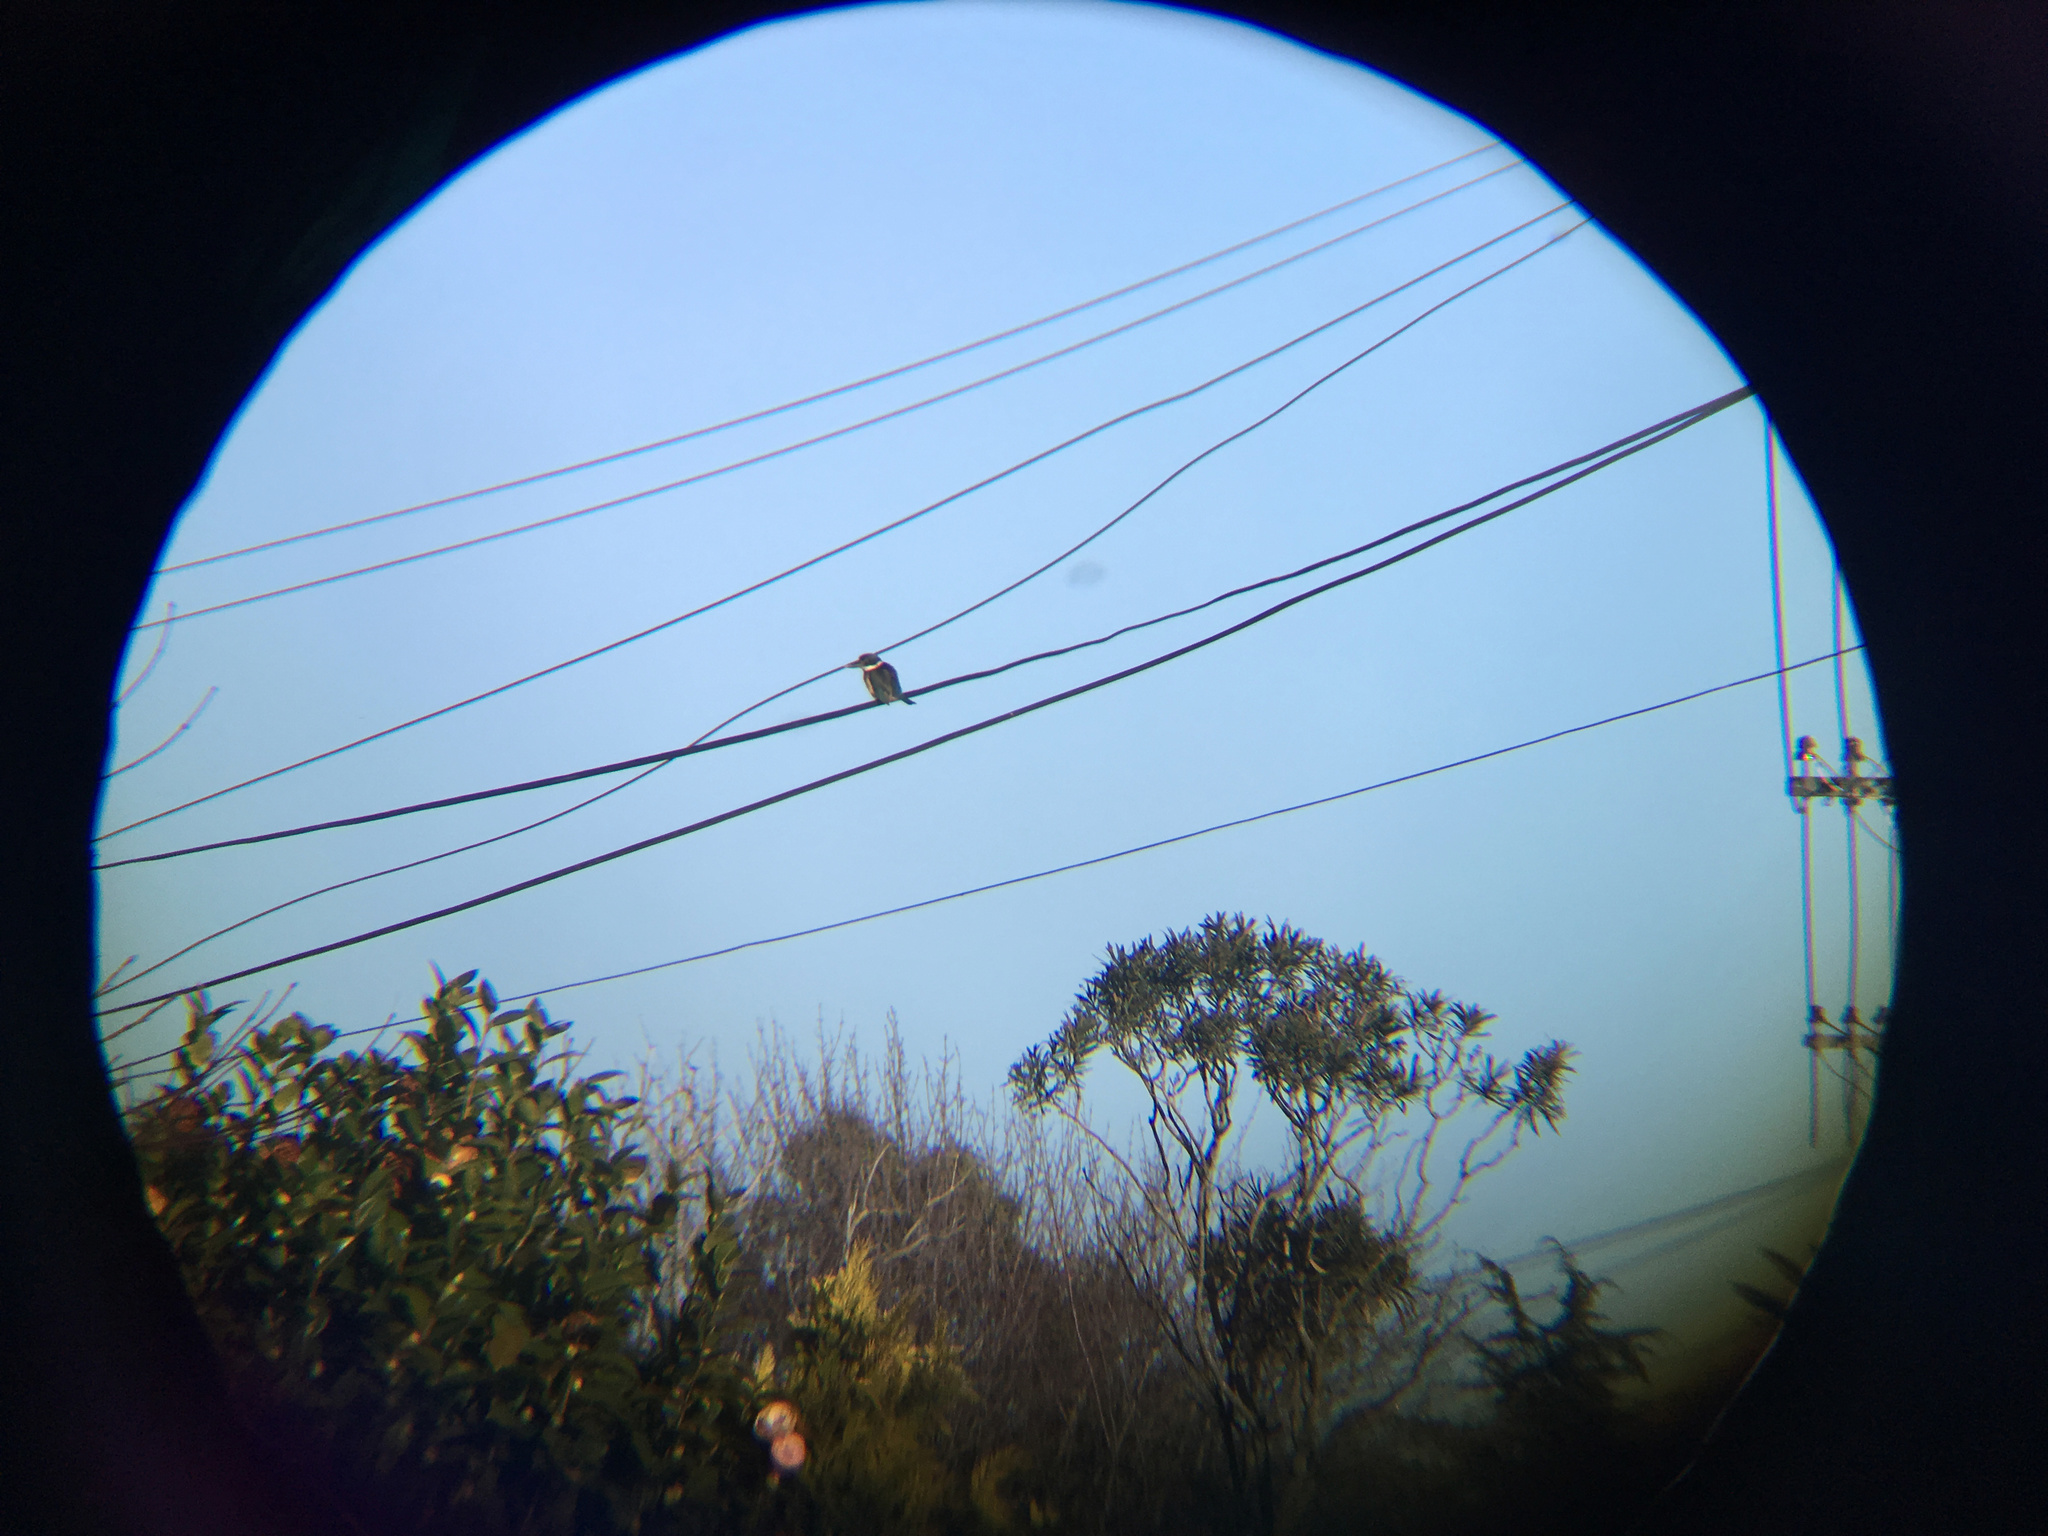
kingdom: Animalia
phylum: Chordata
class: Aves
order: Coraciiformes
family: Alcedinidae
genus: Todiramphus
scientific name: Todiramphus sanctus
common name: Sacred kingfisher
